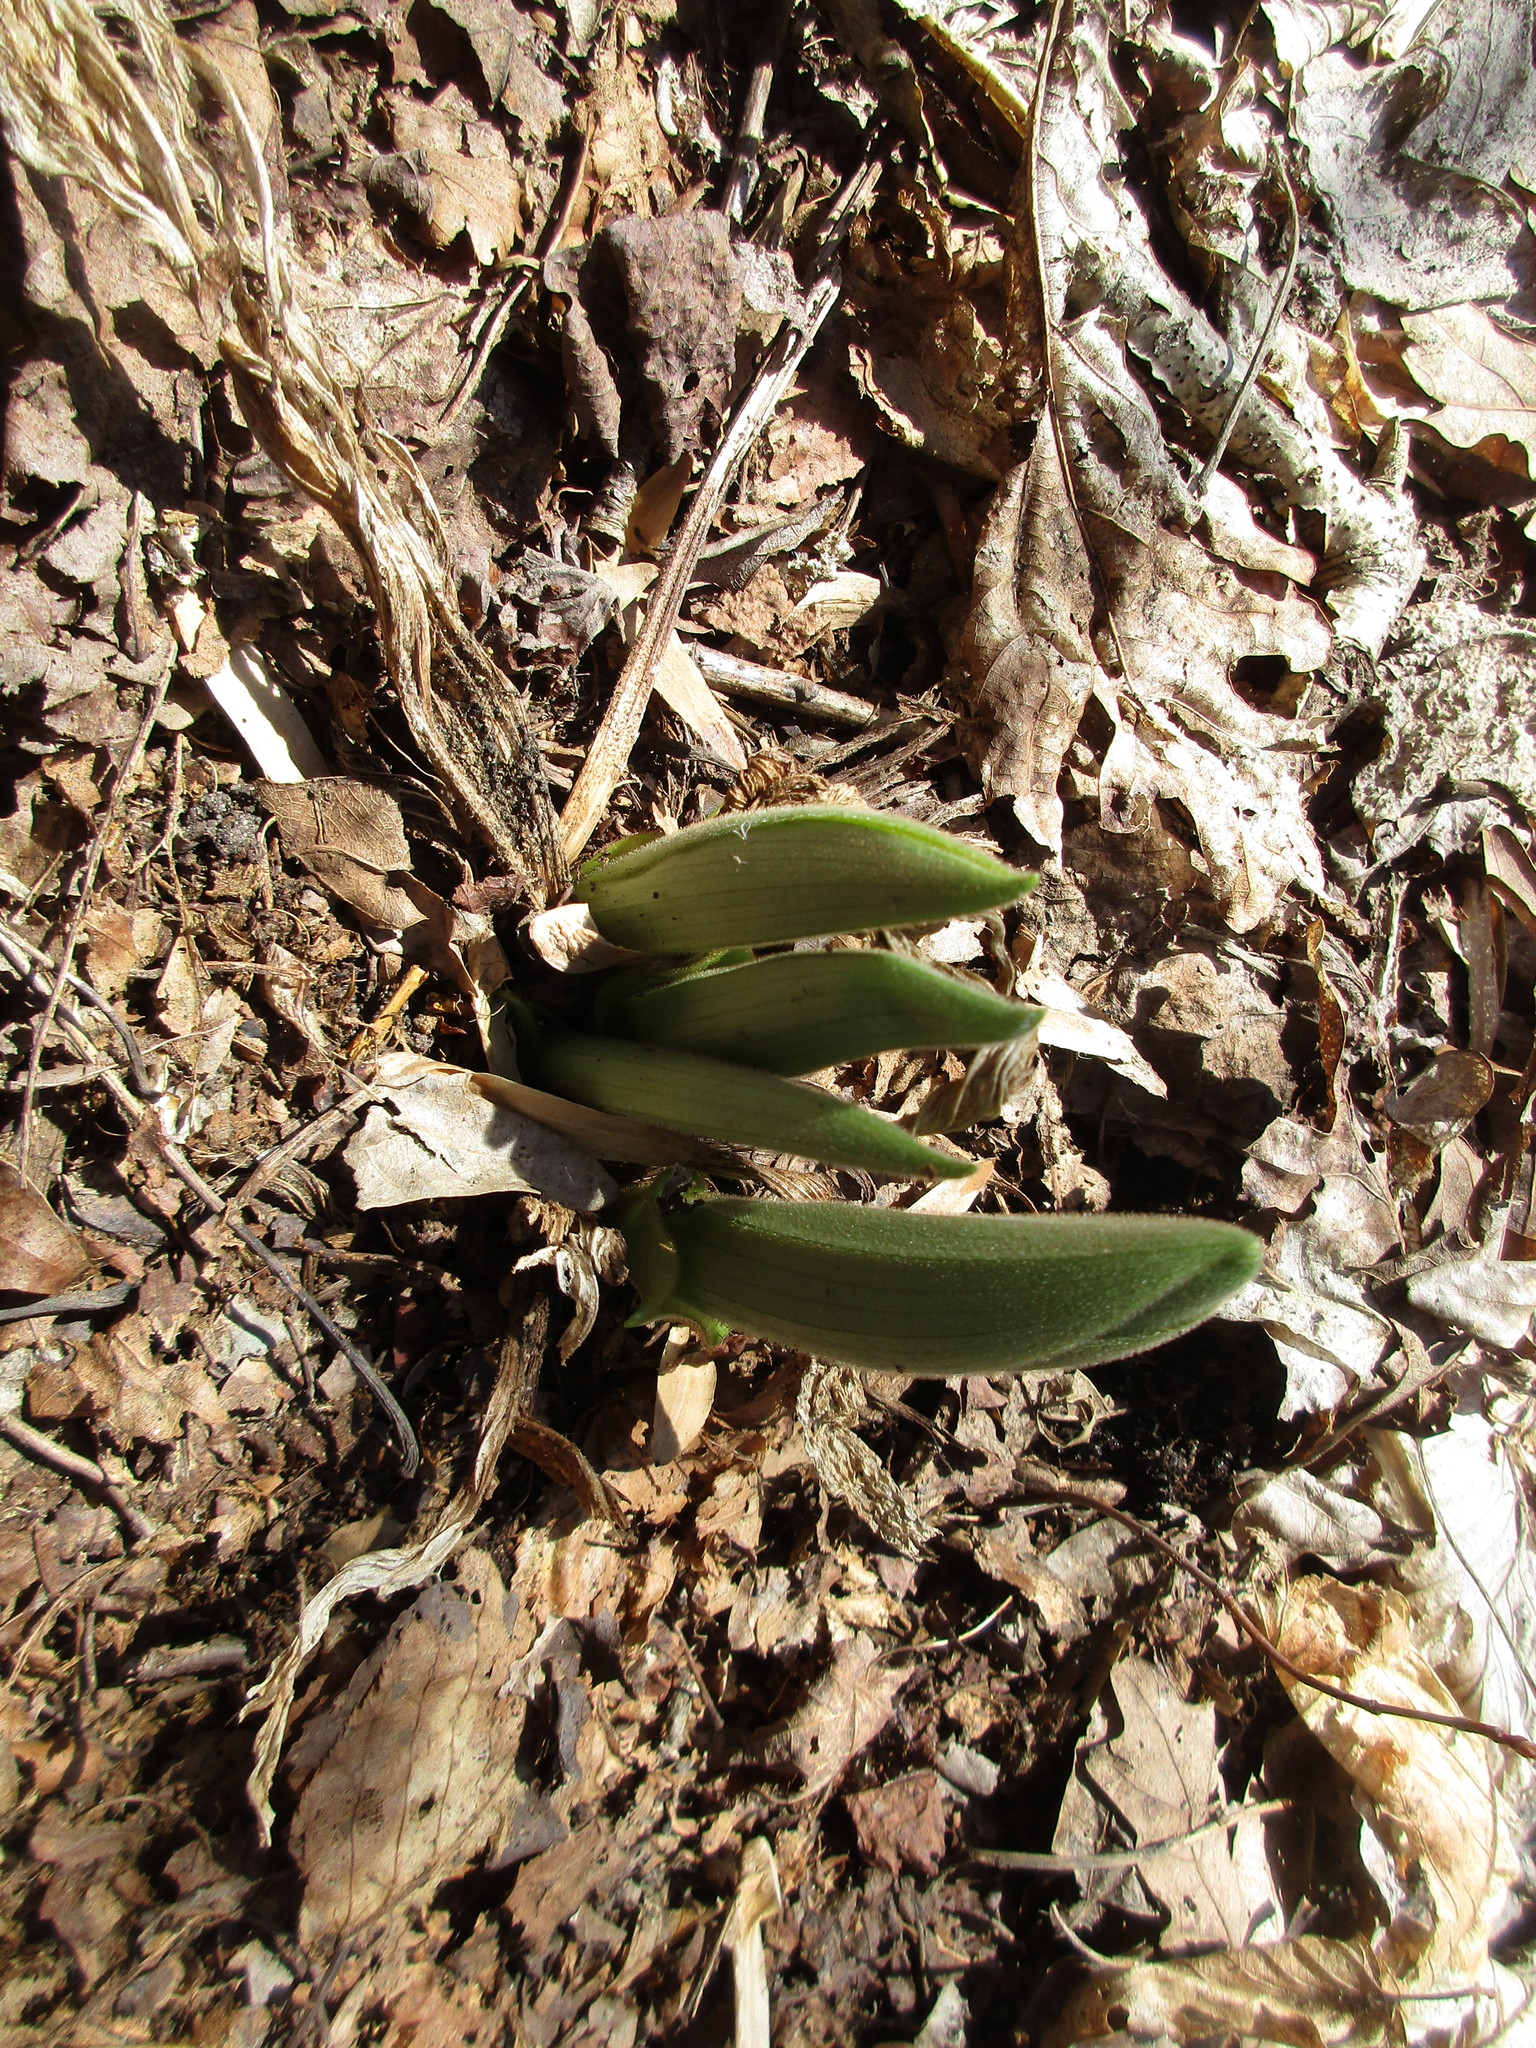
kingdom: Plantae
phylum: Tracheophyta
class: Liliopsida
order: Asparagales
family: Orchidaceae
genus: Cypripedium
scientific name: Cypripedium acaule
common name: Pink lady's-slipper
